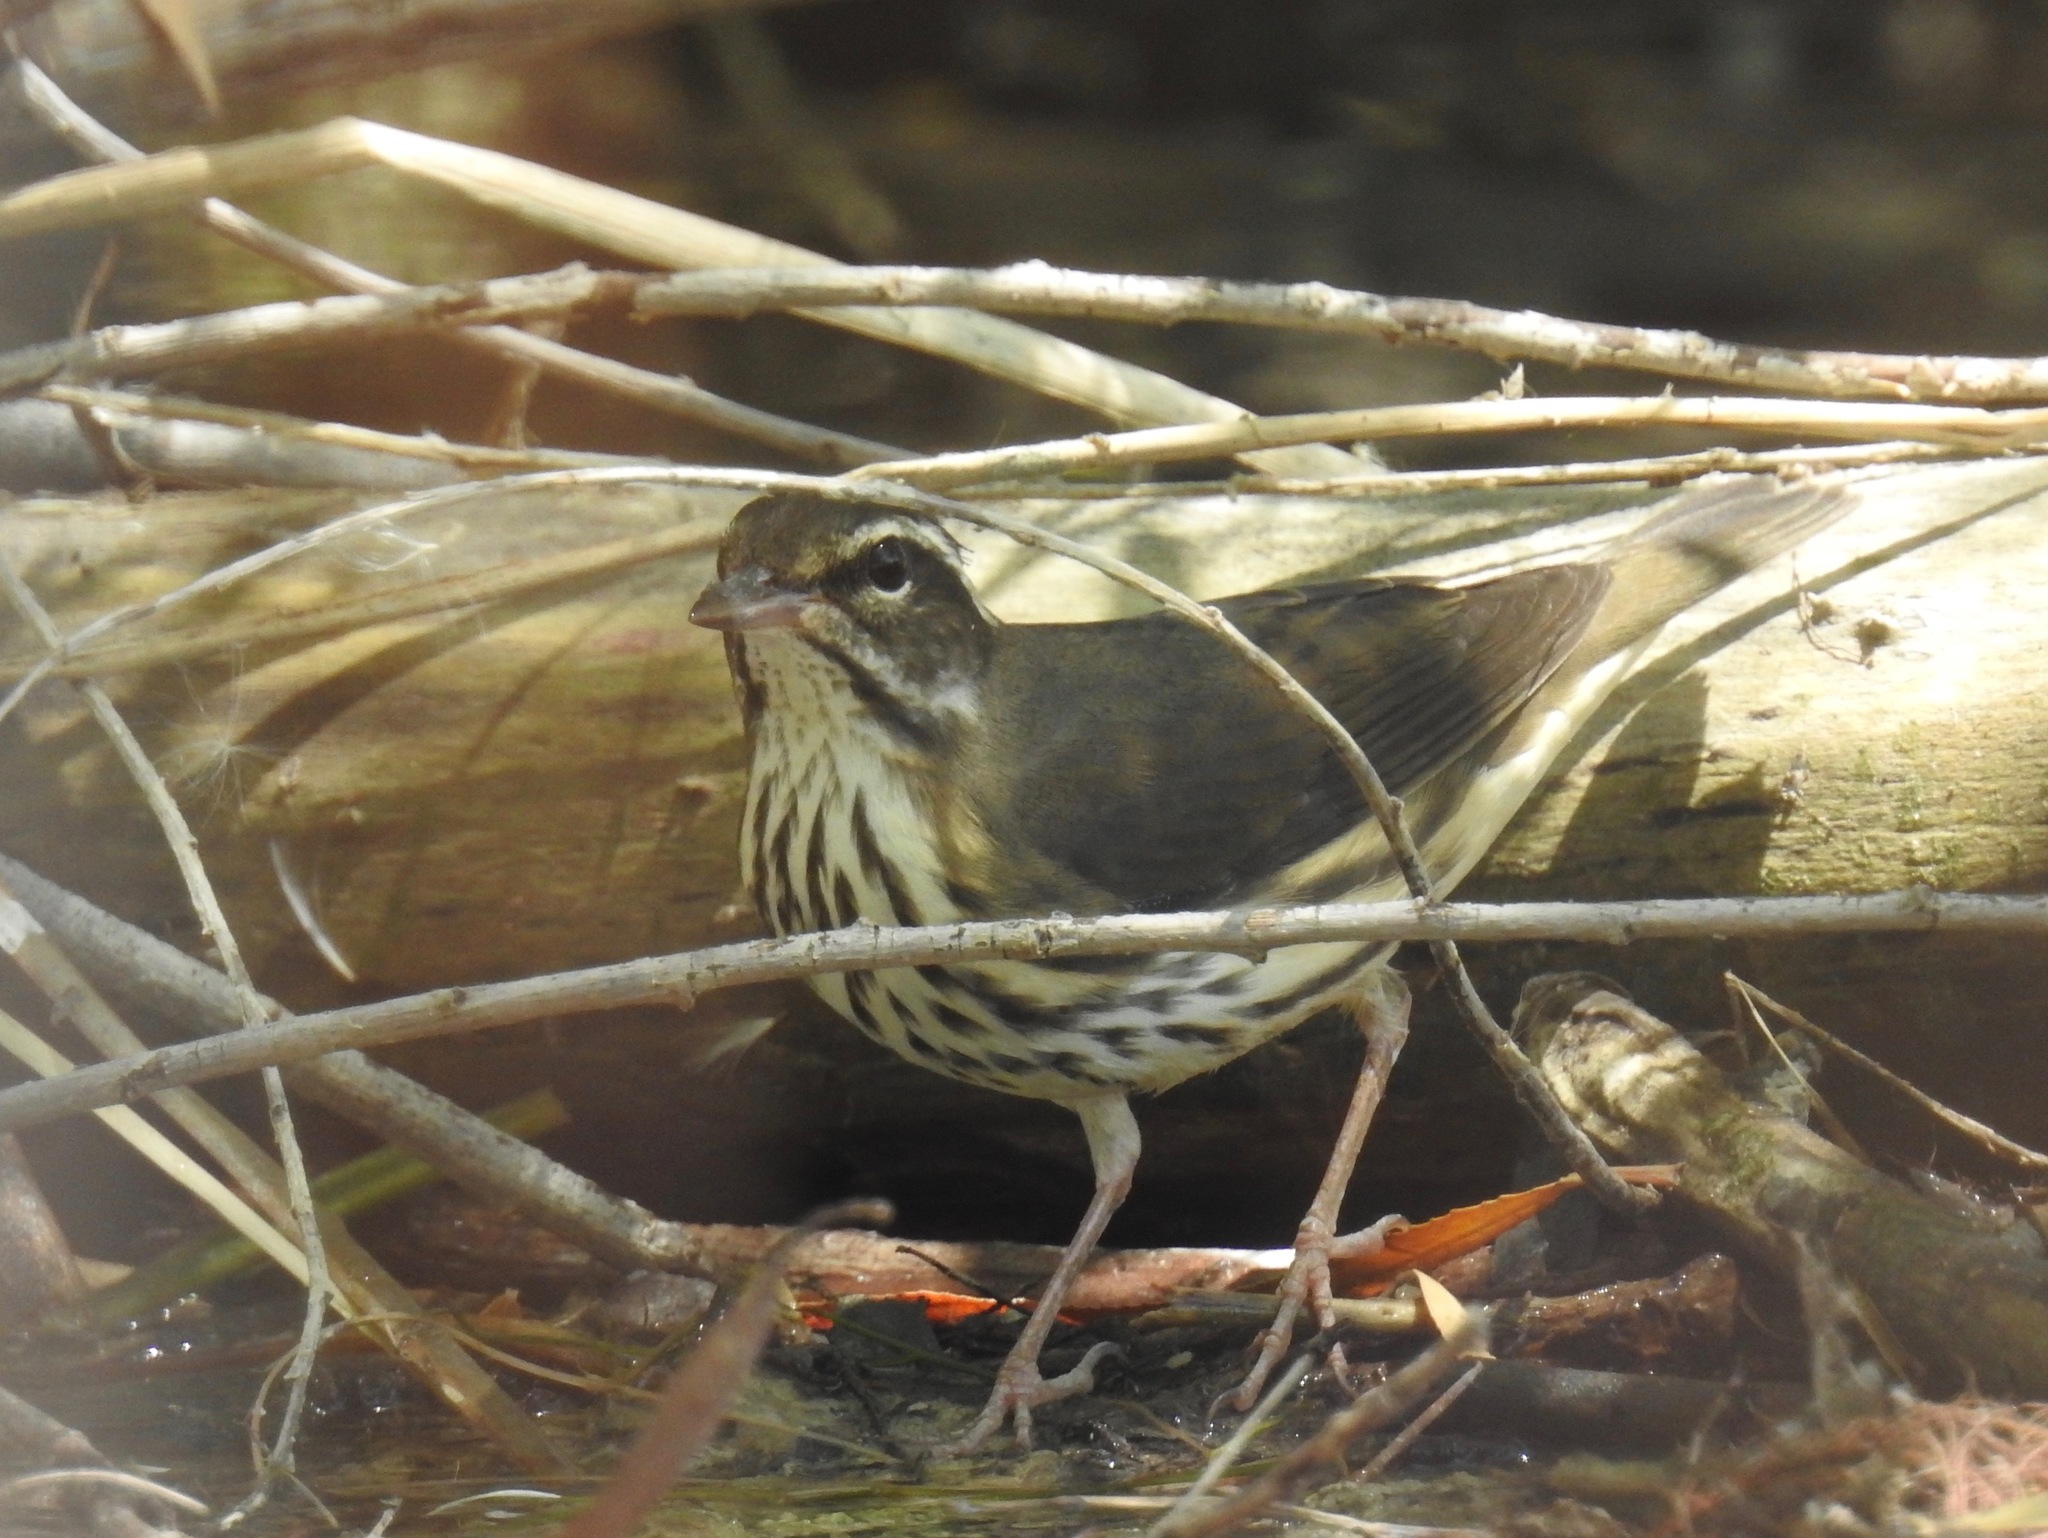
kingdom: Animalia
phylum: Chordata
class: Aves
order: Passeriformes
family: Parulidae
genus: Parkesia
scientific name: Parkesia motacilla
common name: Louisiana waterthrush
